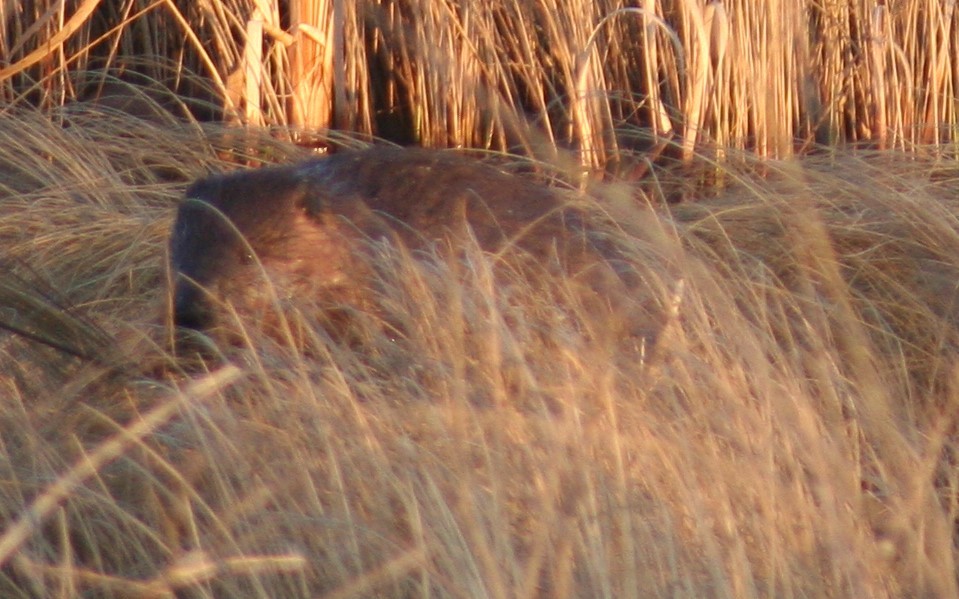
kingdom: Animalia
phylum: Chordata
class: Mammalia
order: Rodentia
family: Castoridae
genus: Castor
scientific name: Castor canadensis
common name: American beaver
